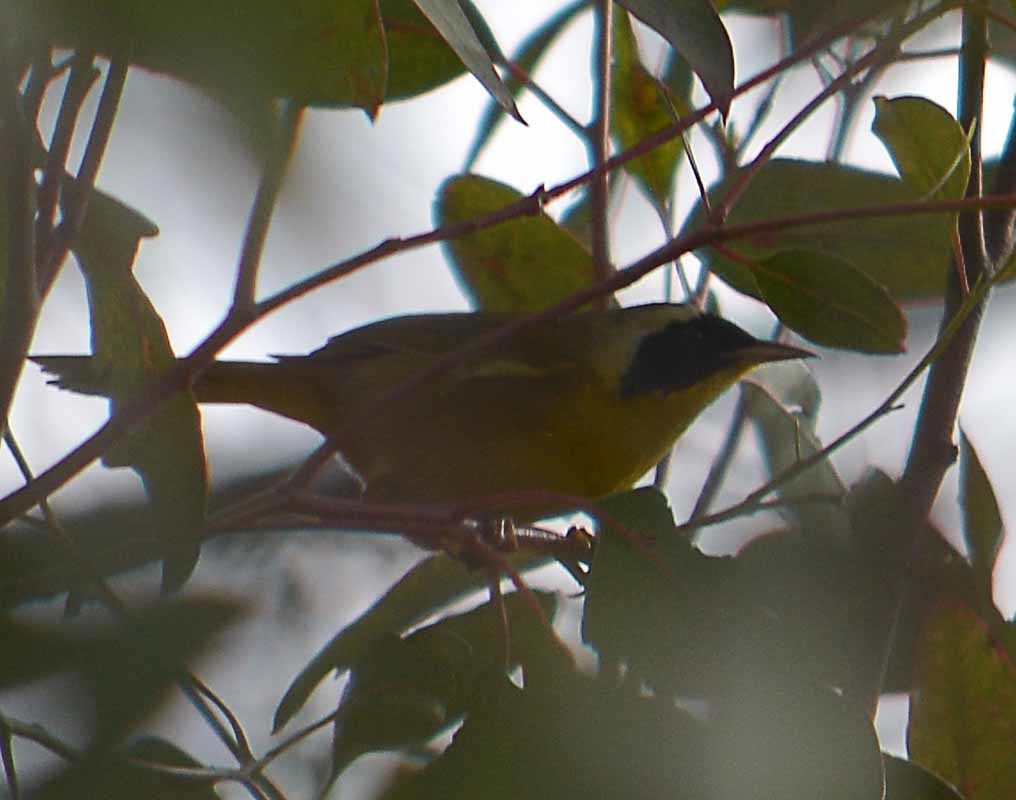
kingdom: Animalia
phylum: Chordata
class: Aves
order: Passeriformes
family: Parulidae
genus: Geothlypis
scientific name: Geothlypis trichas
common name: Common yellowthroat
